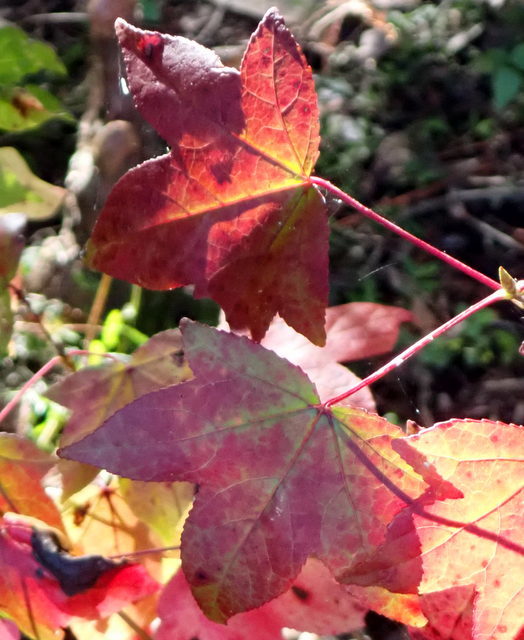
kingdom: Plantae
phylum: Tracheophyta
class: Magnoliopsida
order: Saxifragales
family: Altingiaceae
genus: Liquidambar
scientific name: Liquidambar styraciflua
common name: Sweet gum
